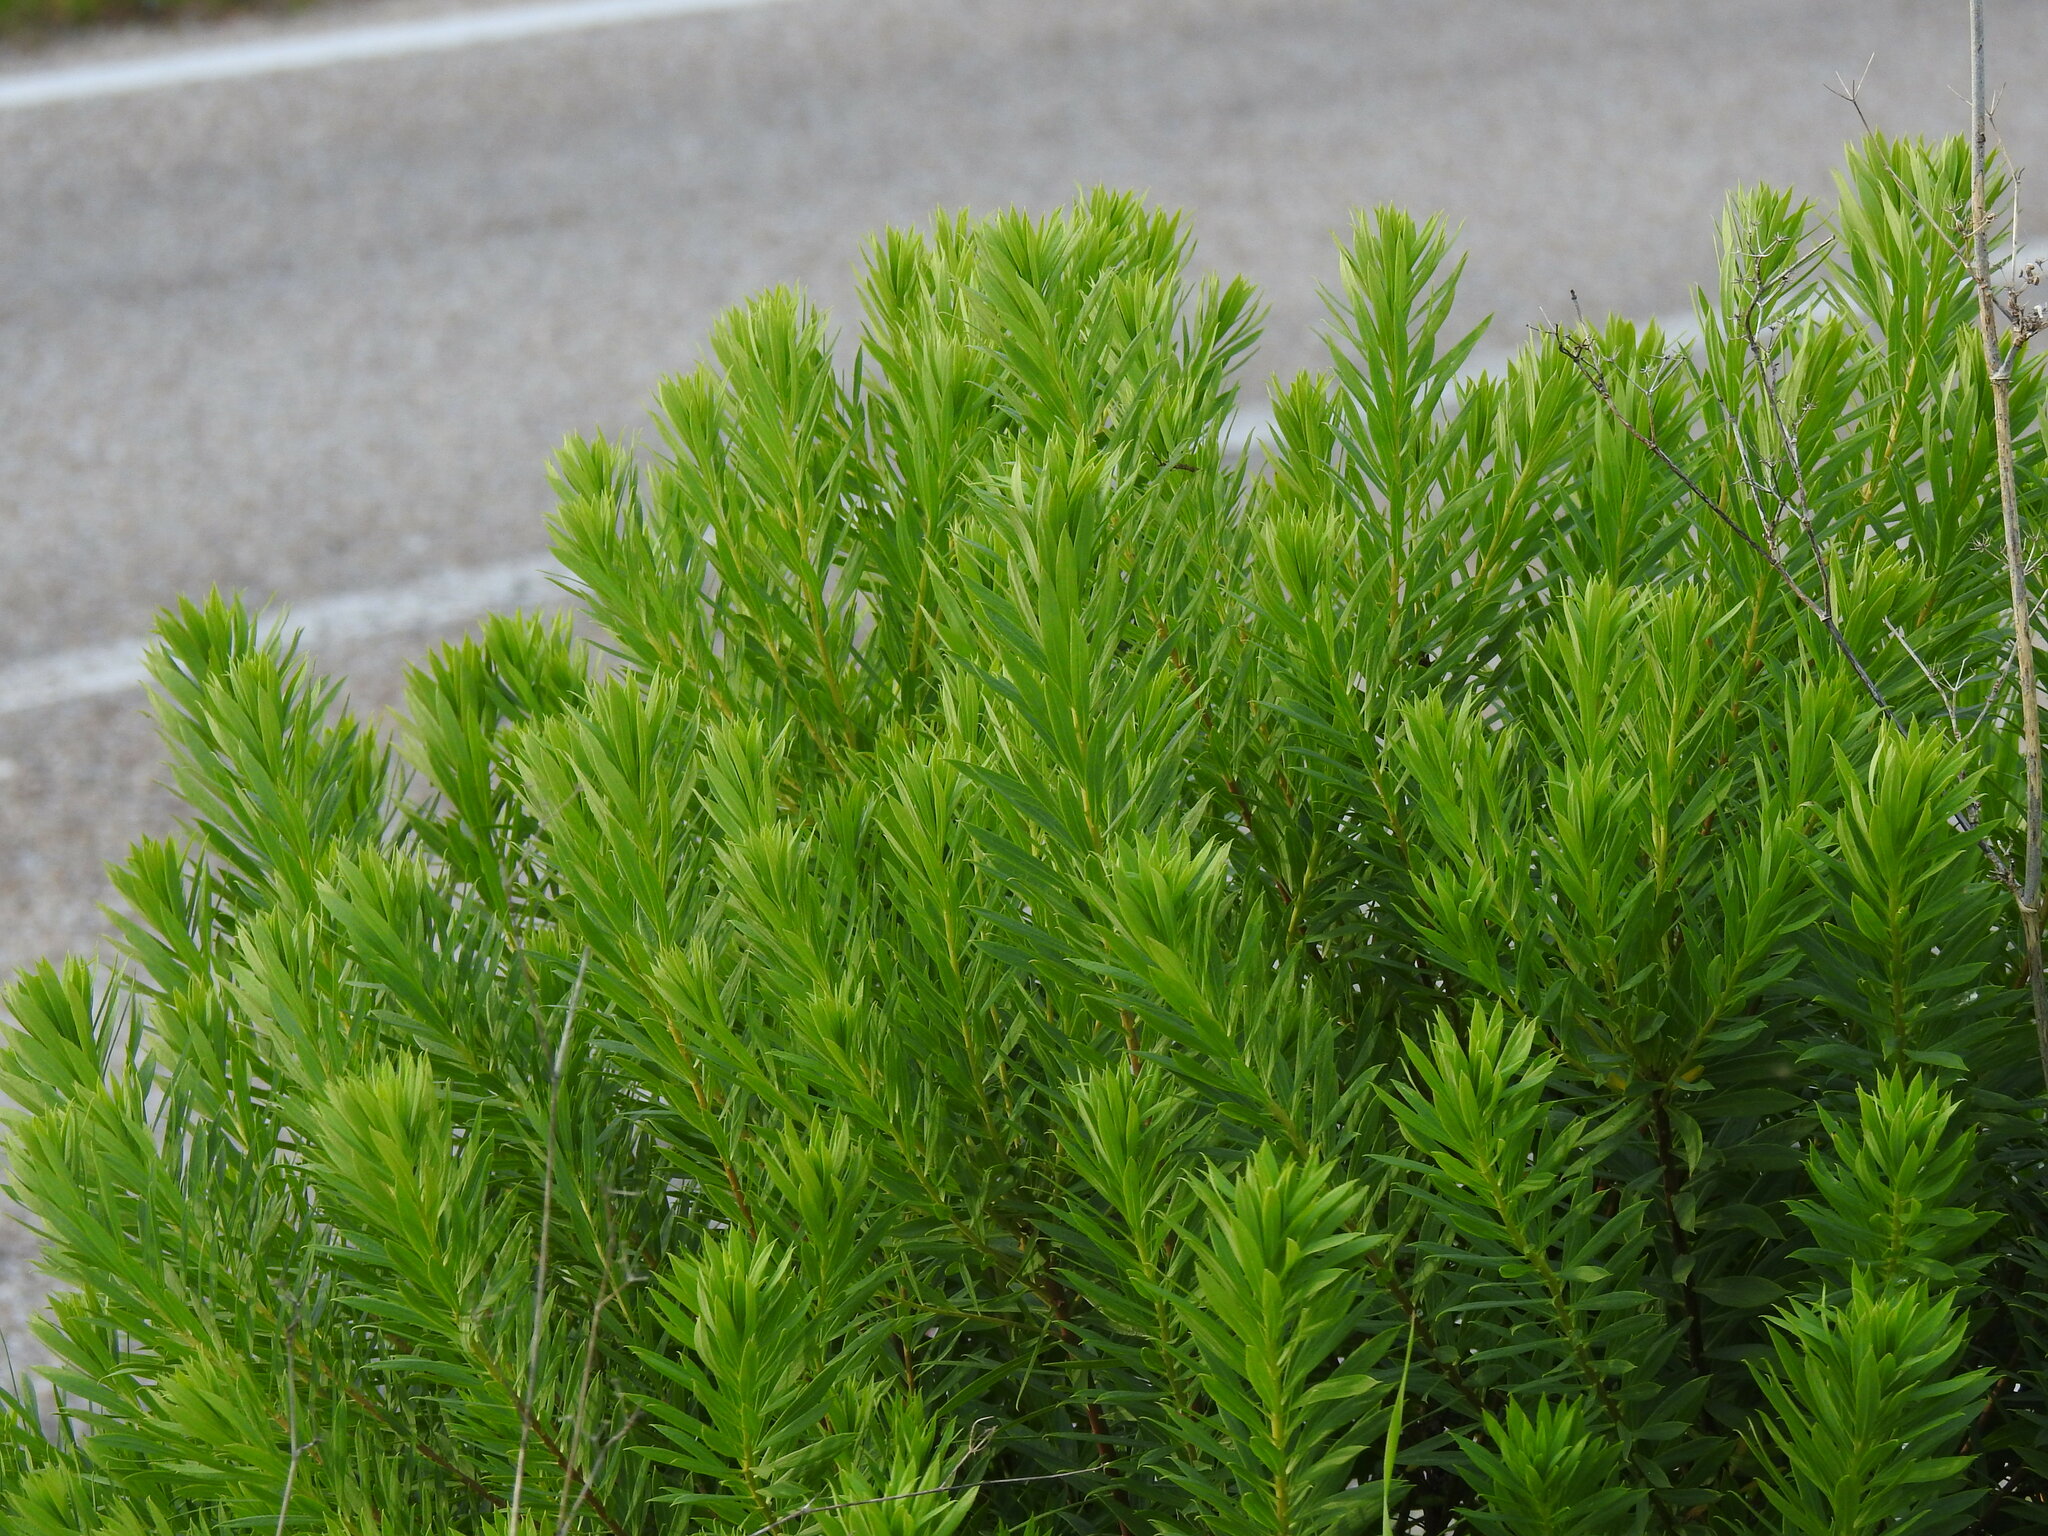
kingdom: Plantae
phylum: Tracheophyta
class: Magnoliopsida
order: Malvales
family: Thymelaeaceae
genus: Daphne
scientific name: Daphne gnidium
